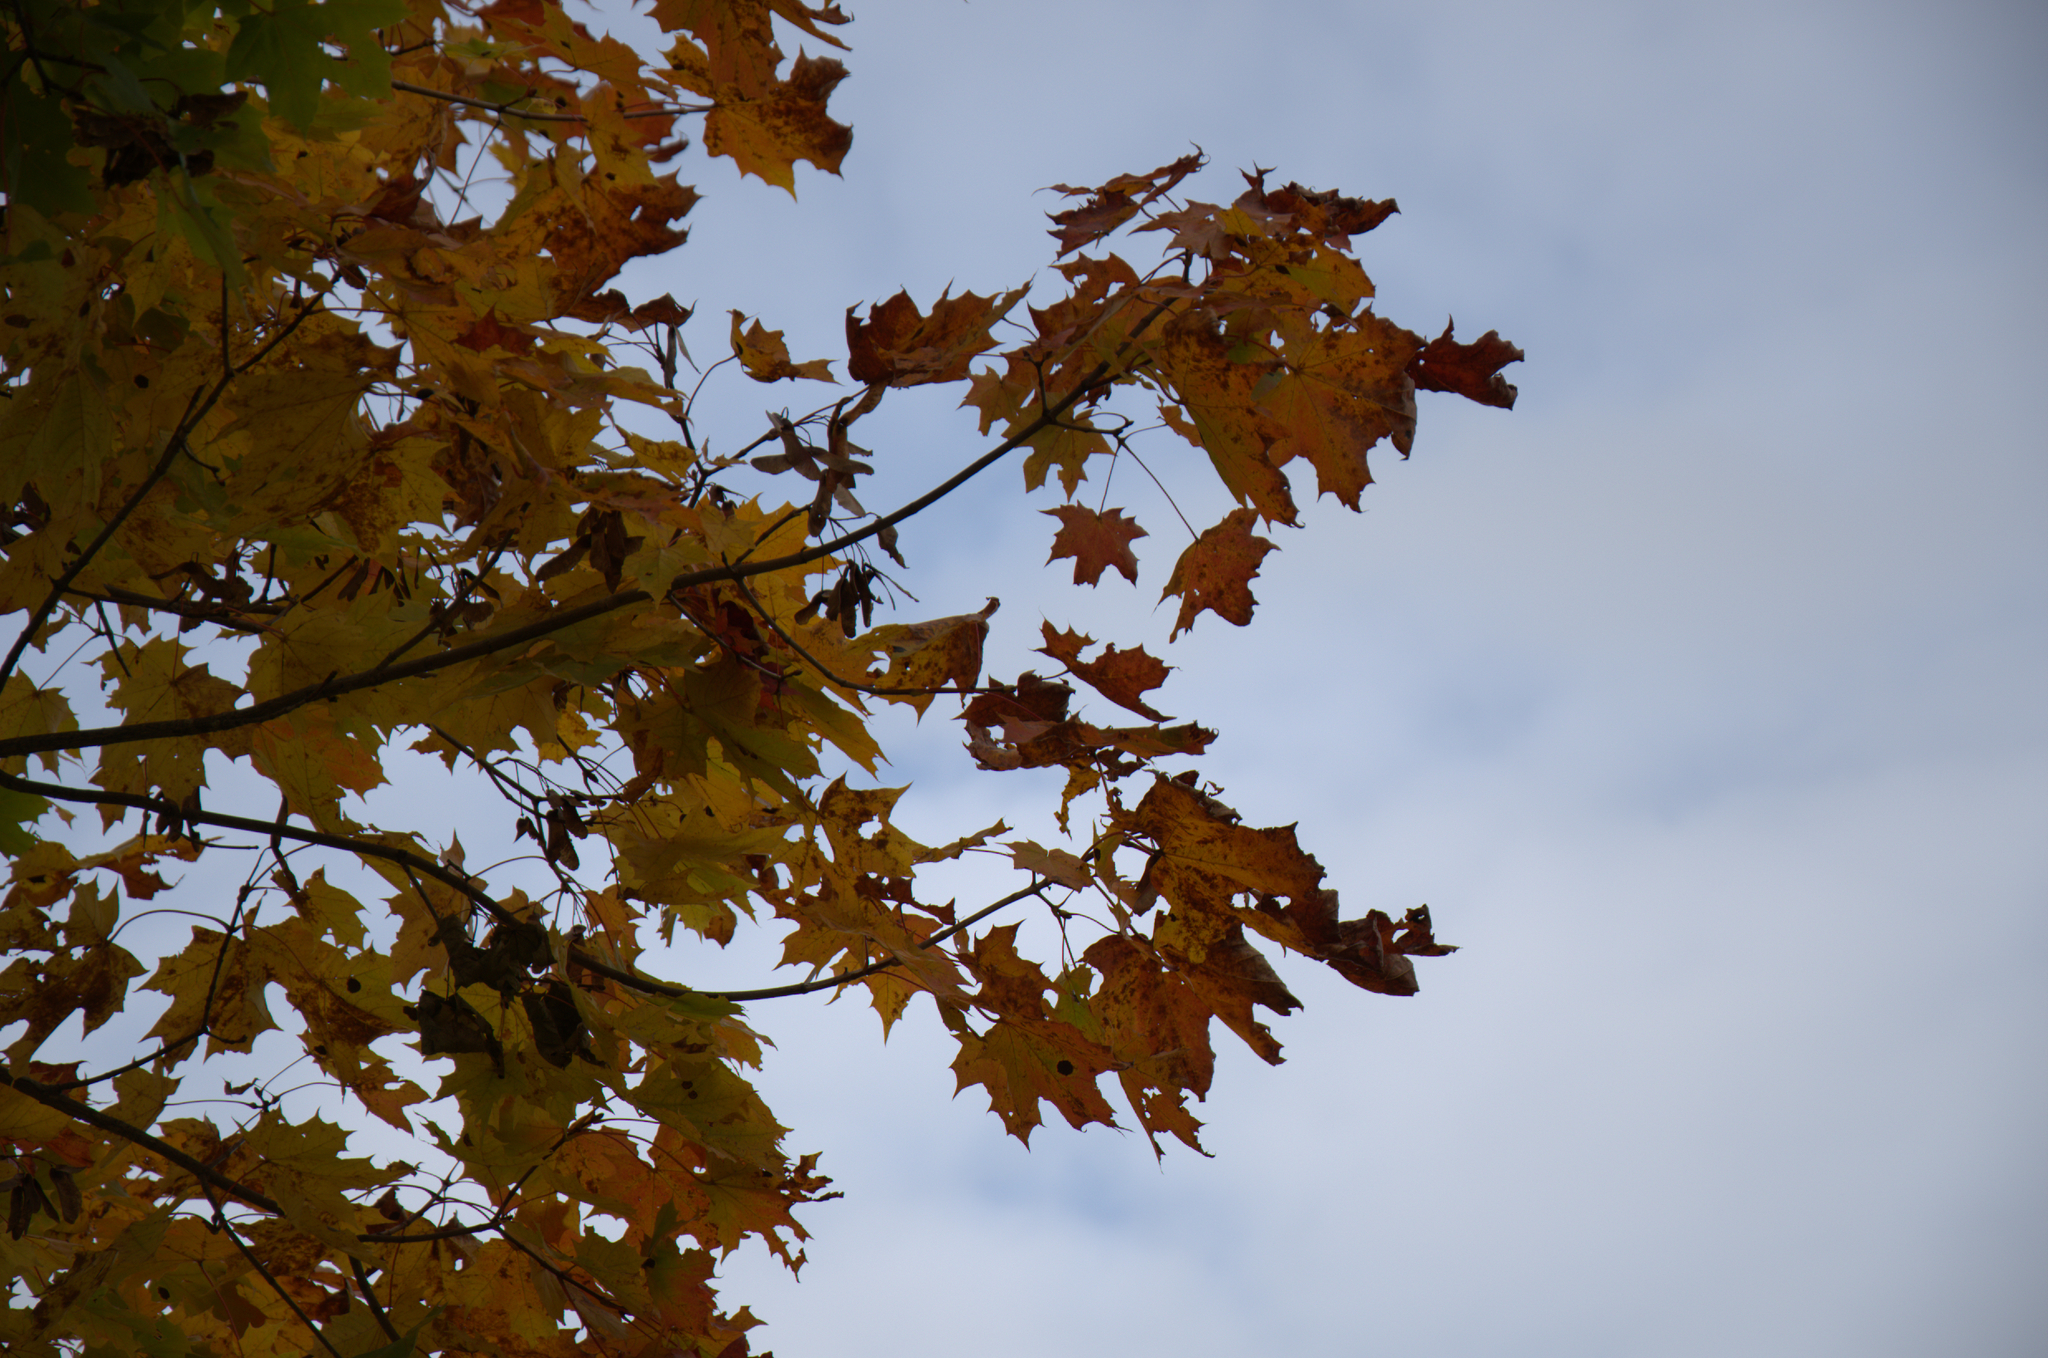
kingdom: Plantae
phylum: Tracheophyta
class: Magnoliopsida
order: Sapindales
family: Sapindaceae
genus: Acer
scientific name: Acer platanoides
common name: Norway maple
